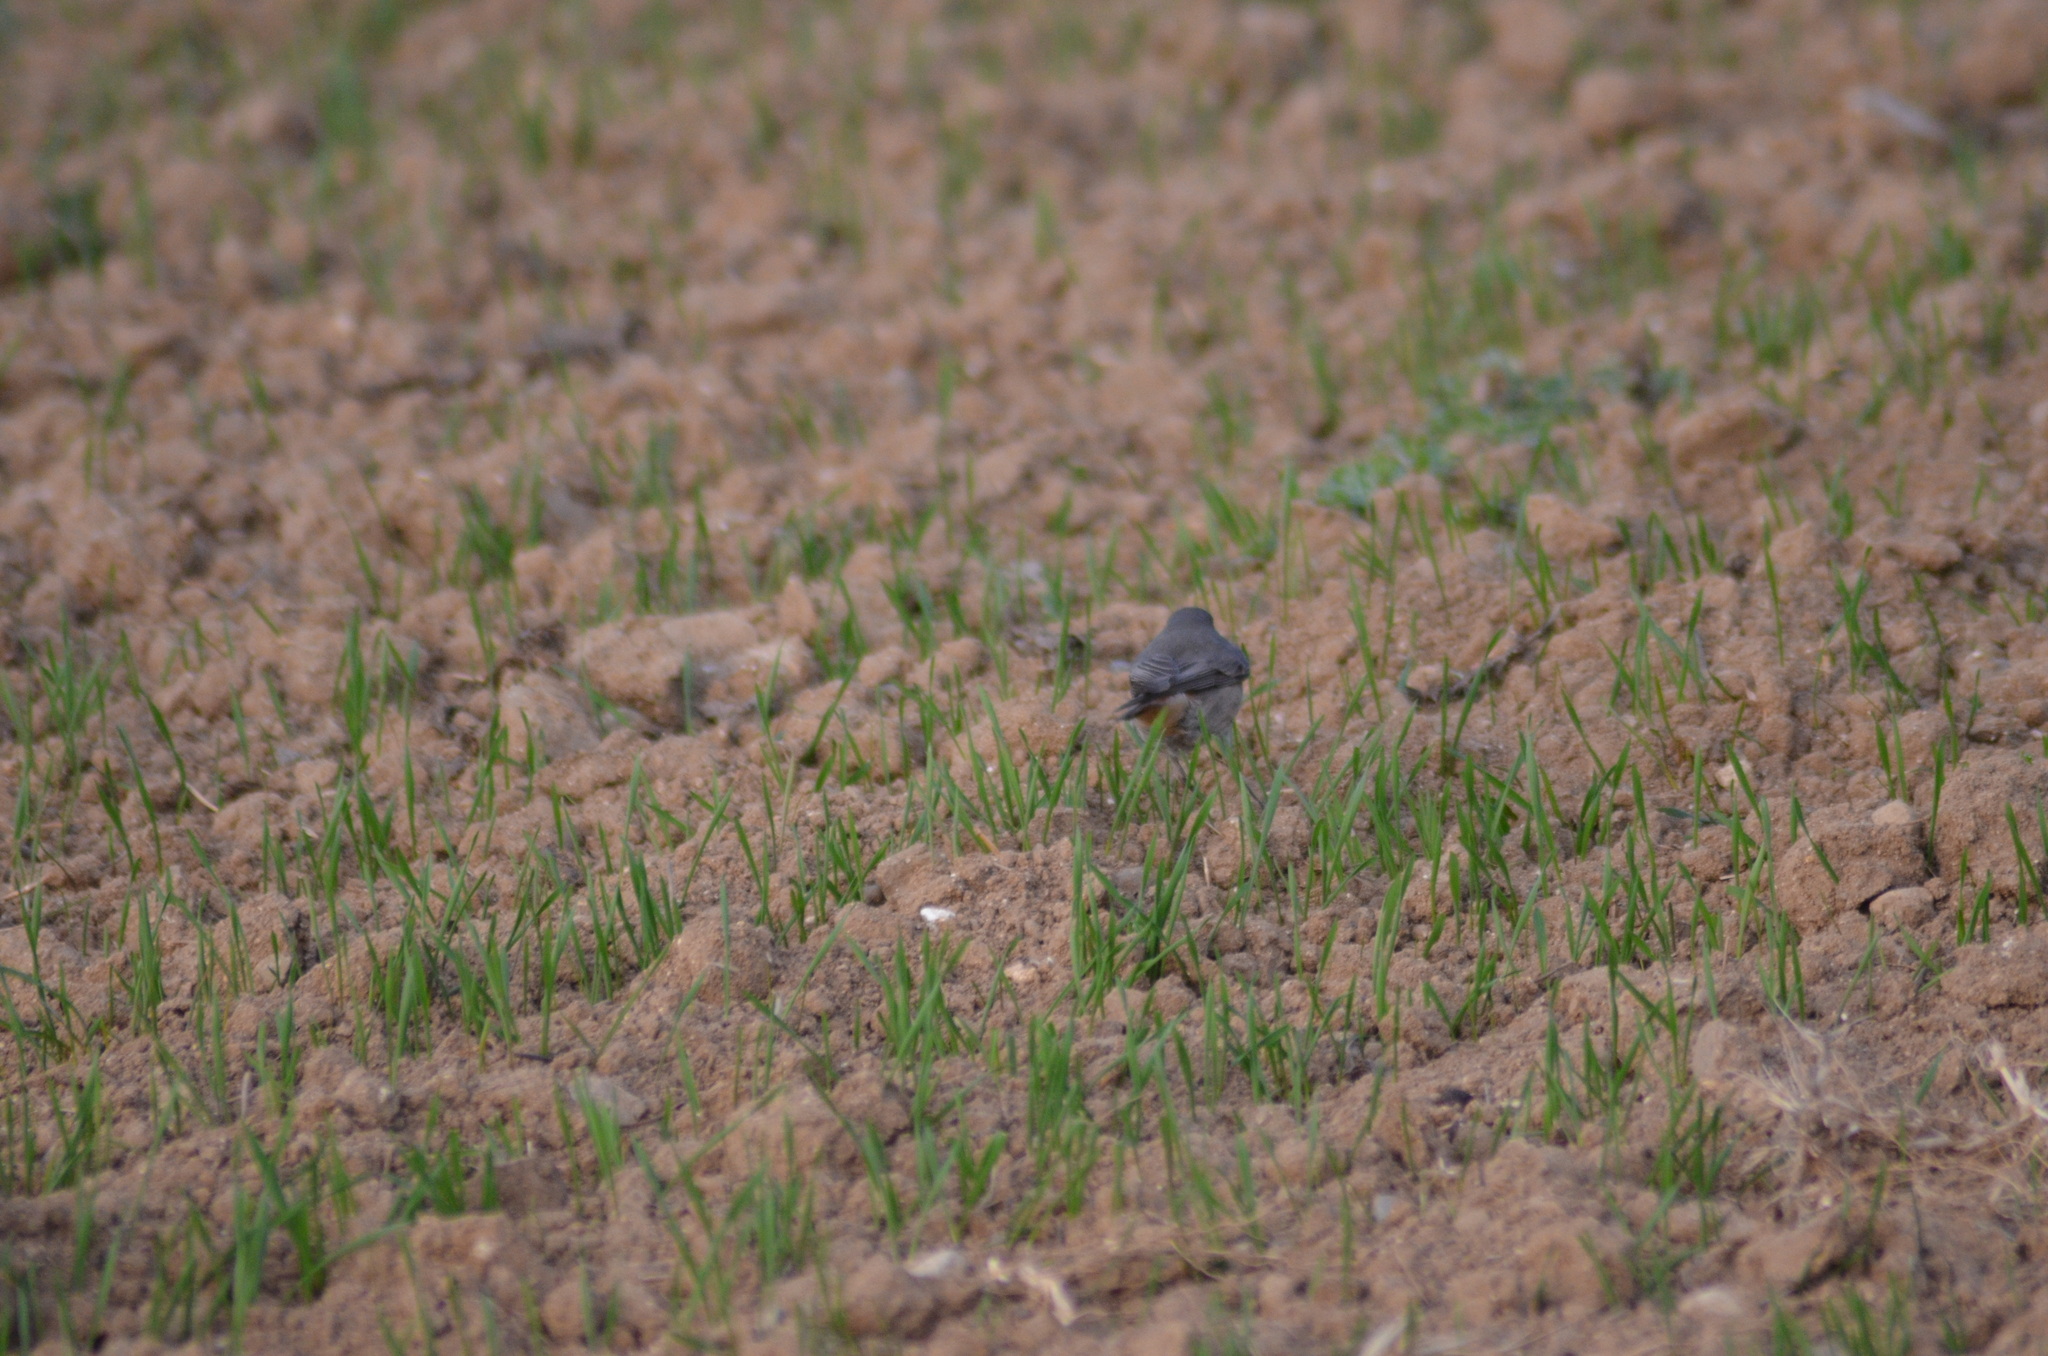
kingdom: Animalia
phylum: Chordata
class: Aves
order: Passeriformes
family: Muscicapidae
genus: Phoenicurus
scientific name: Phoenicurus ochruros
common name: Black redstart
